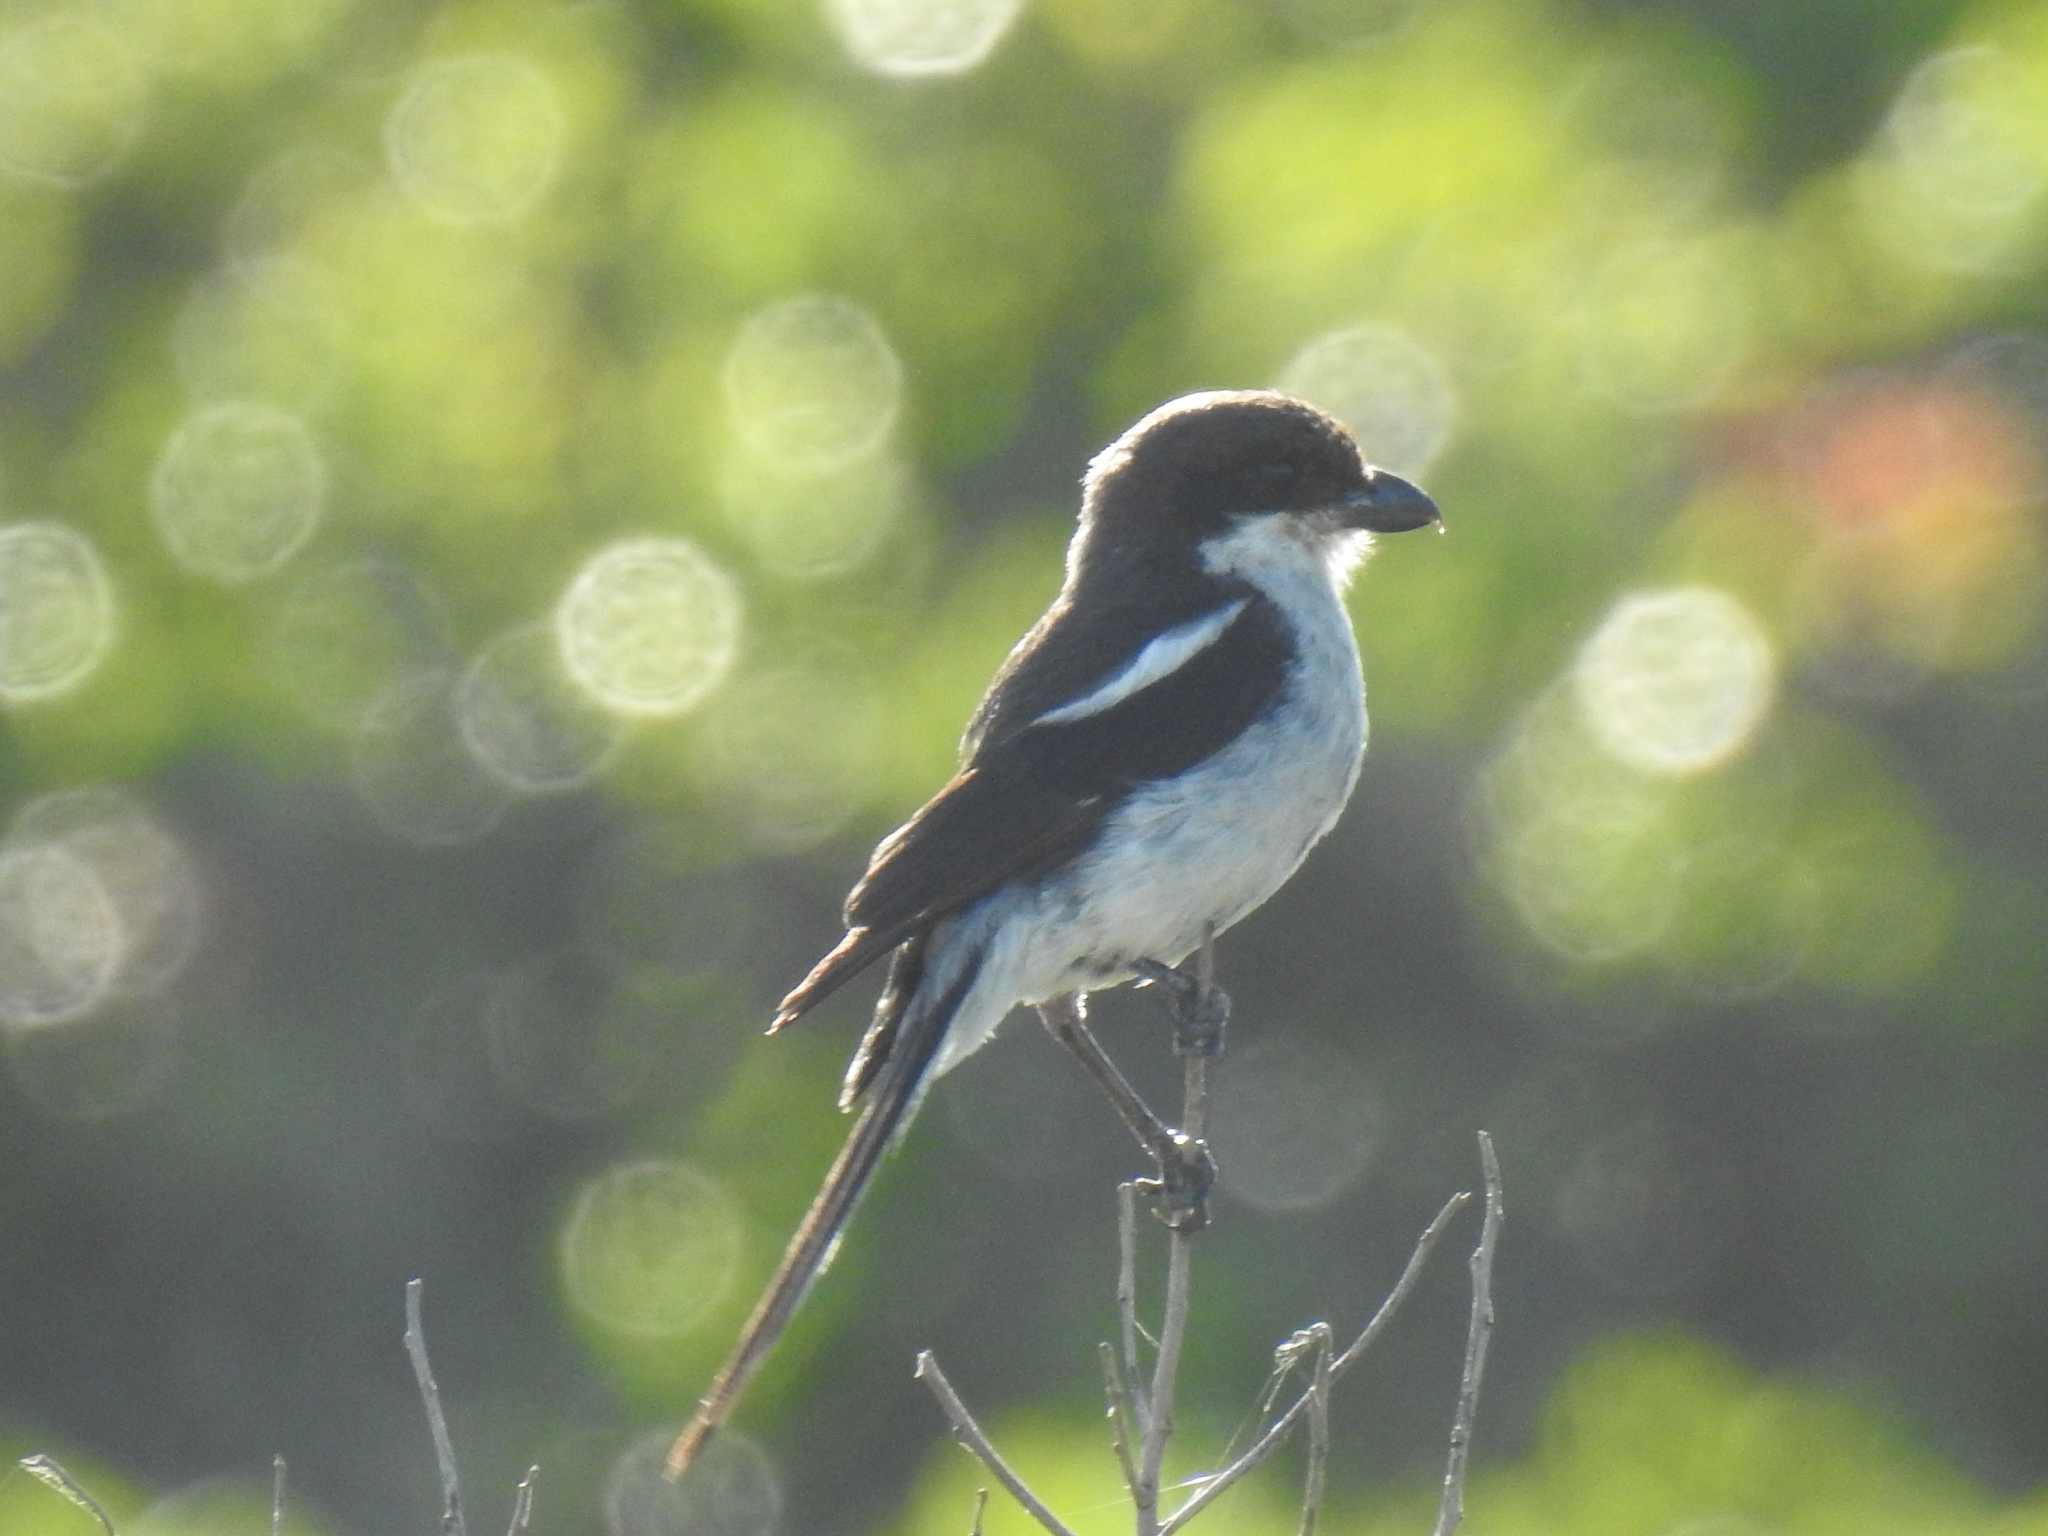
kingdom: Animalia
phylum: Chordata
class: Aves
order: Passeriformes
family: Laniidae
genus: Lanius
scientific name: Lanius collaris
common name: Southern fiscal
